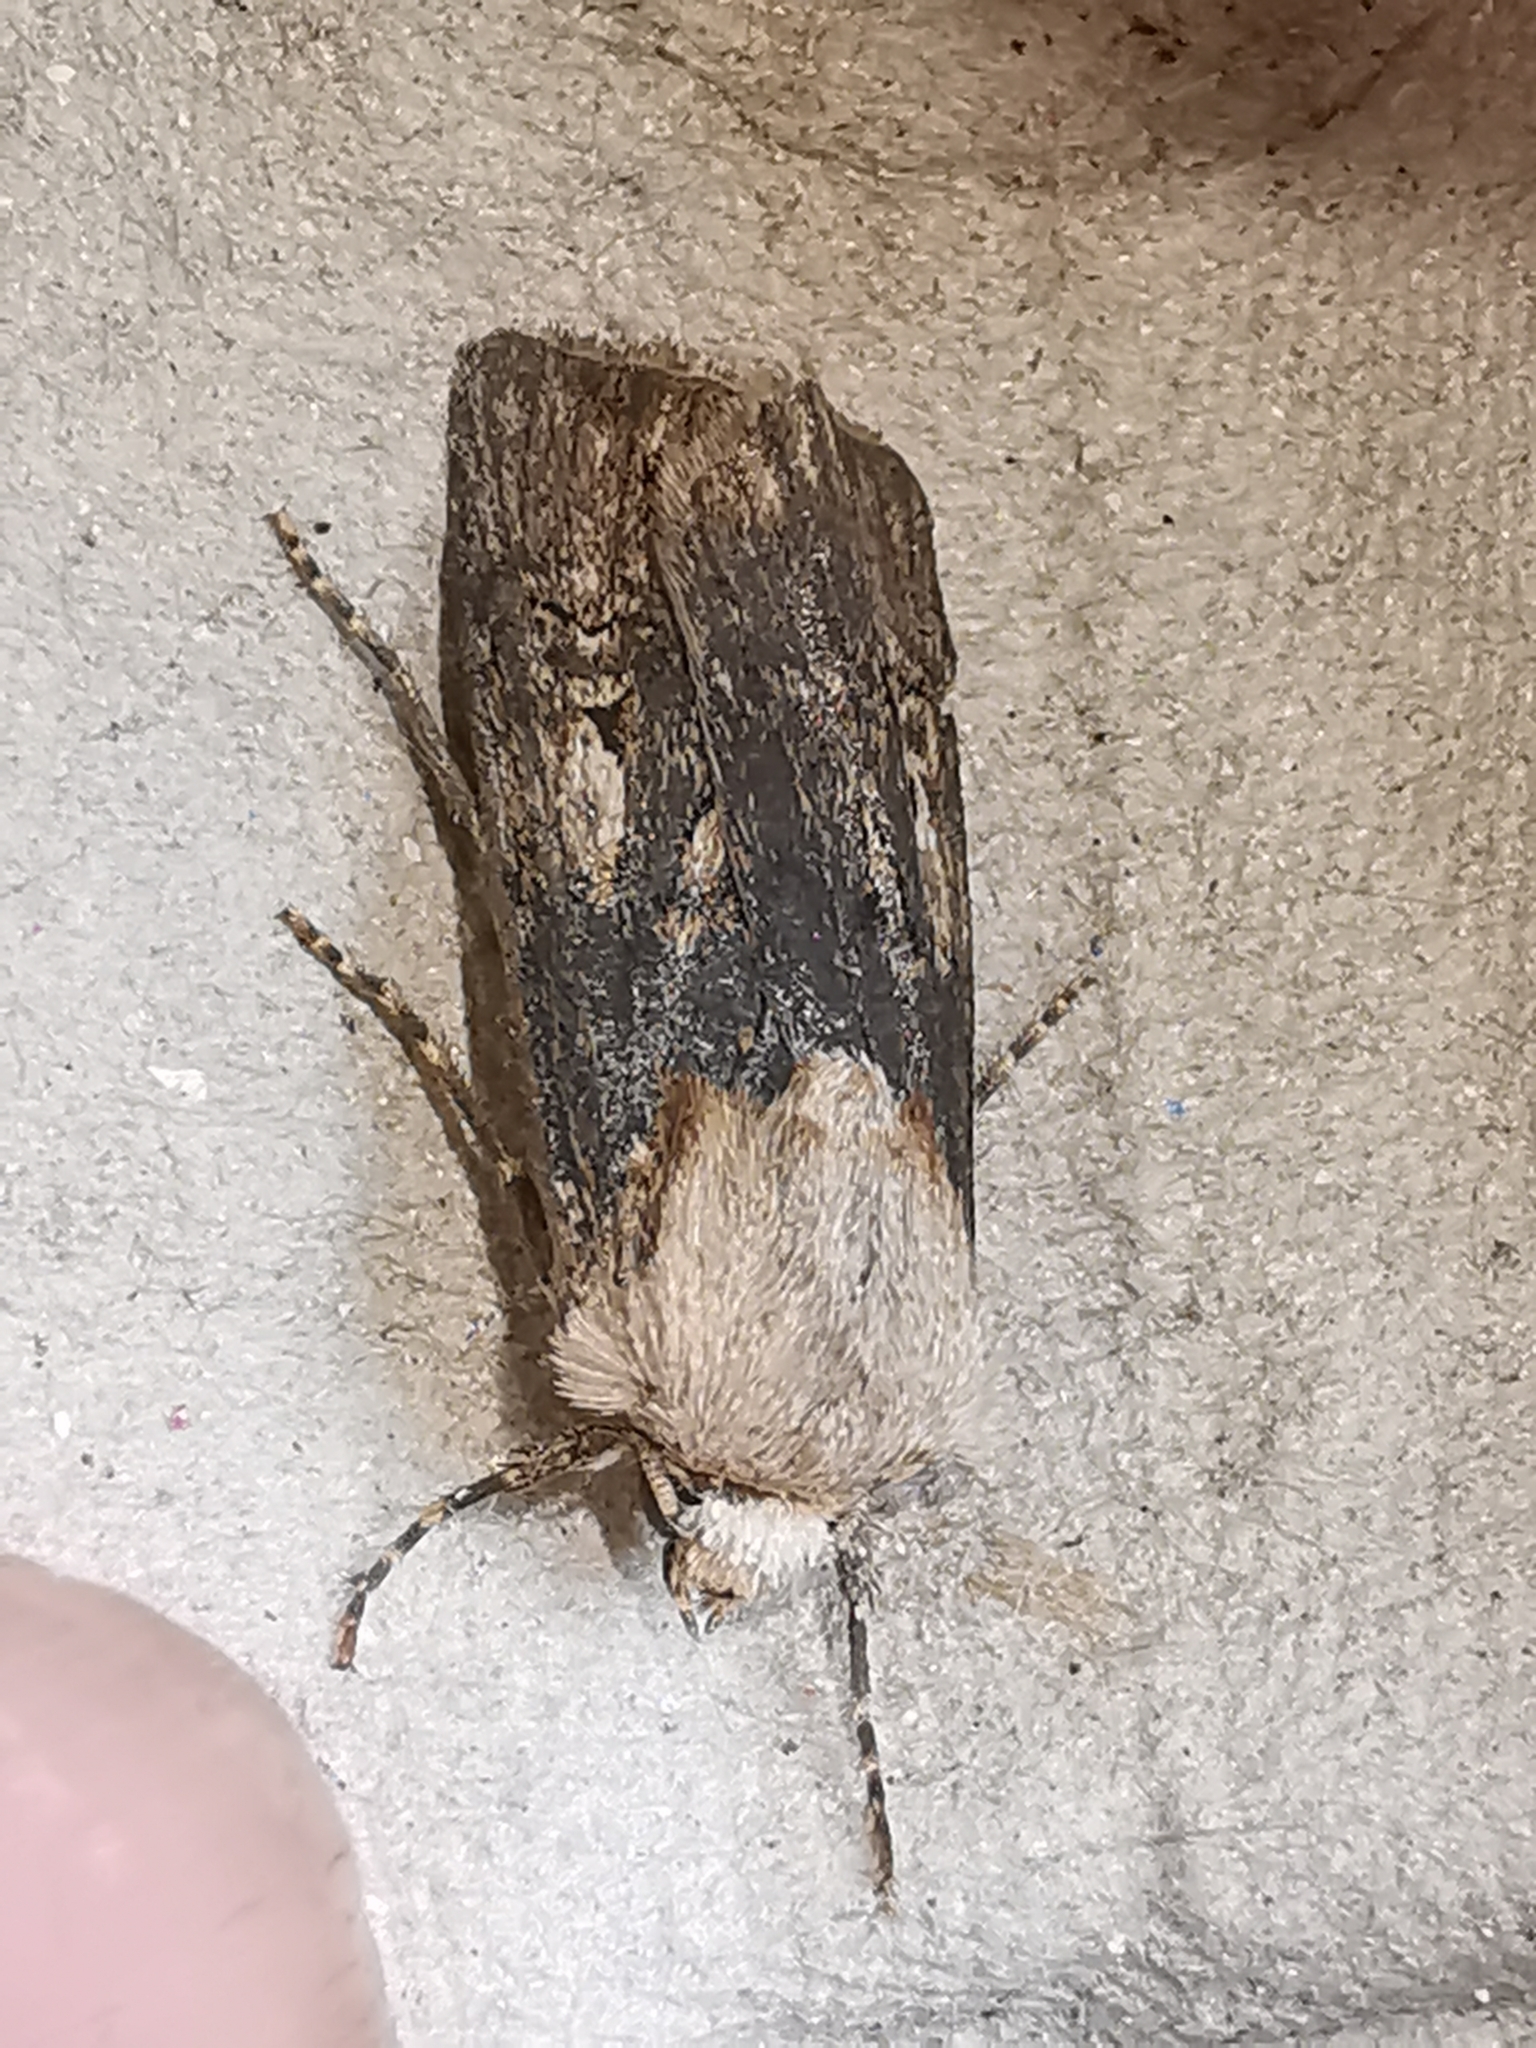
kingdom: Animalia
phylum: Arthropoda
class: Insecta
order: Lepidoptera
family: Noctuidae
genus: Agrotis
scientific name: Agrotis puta
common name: Shuttle-shaped dart
